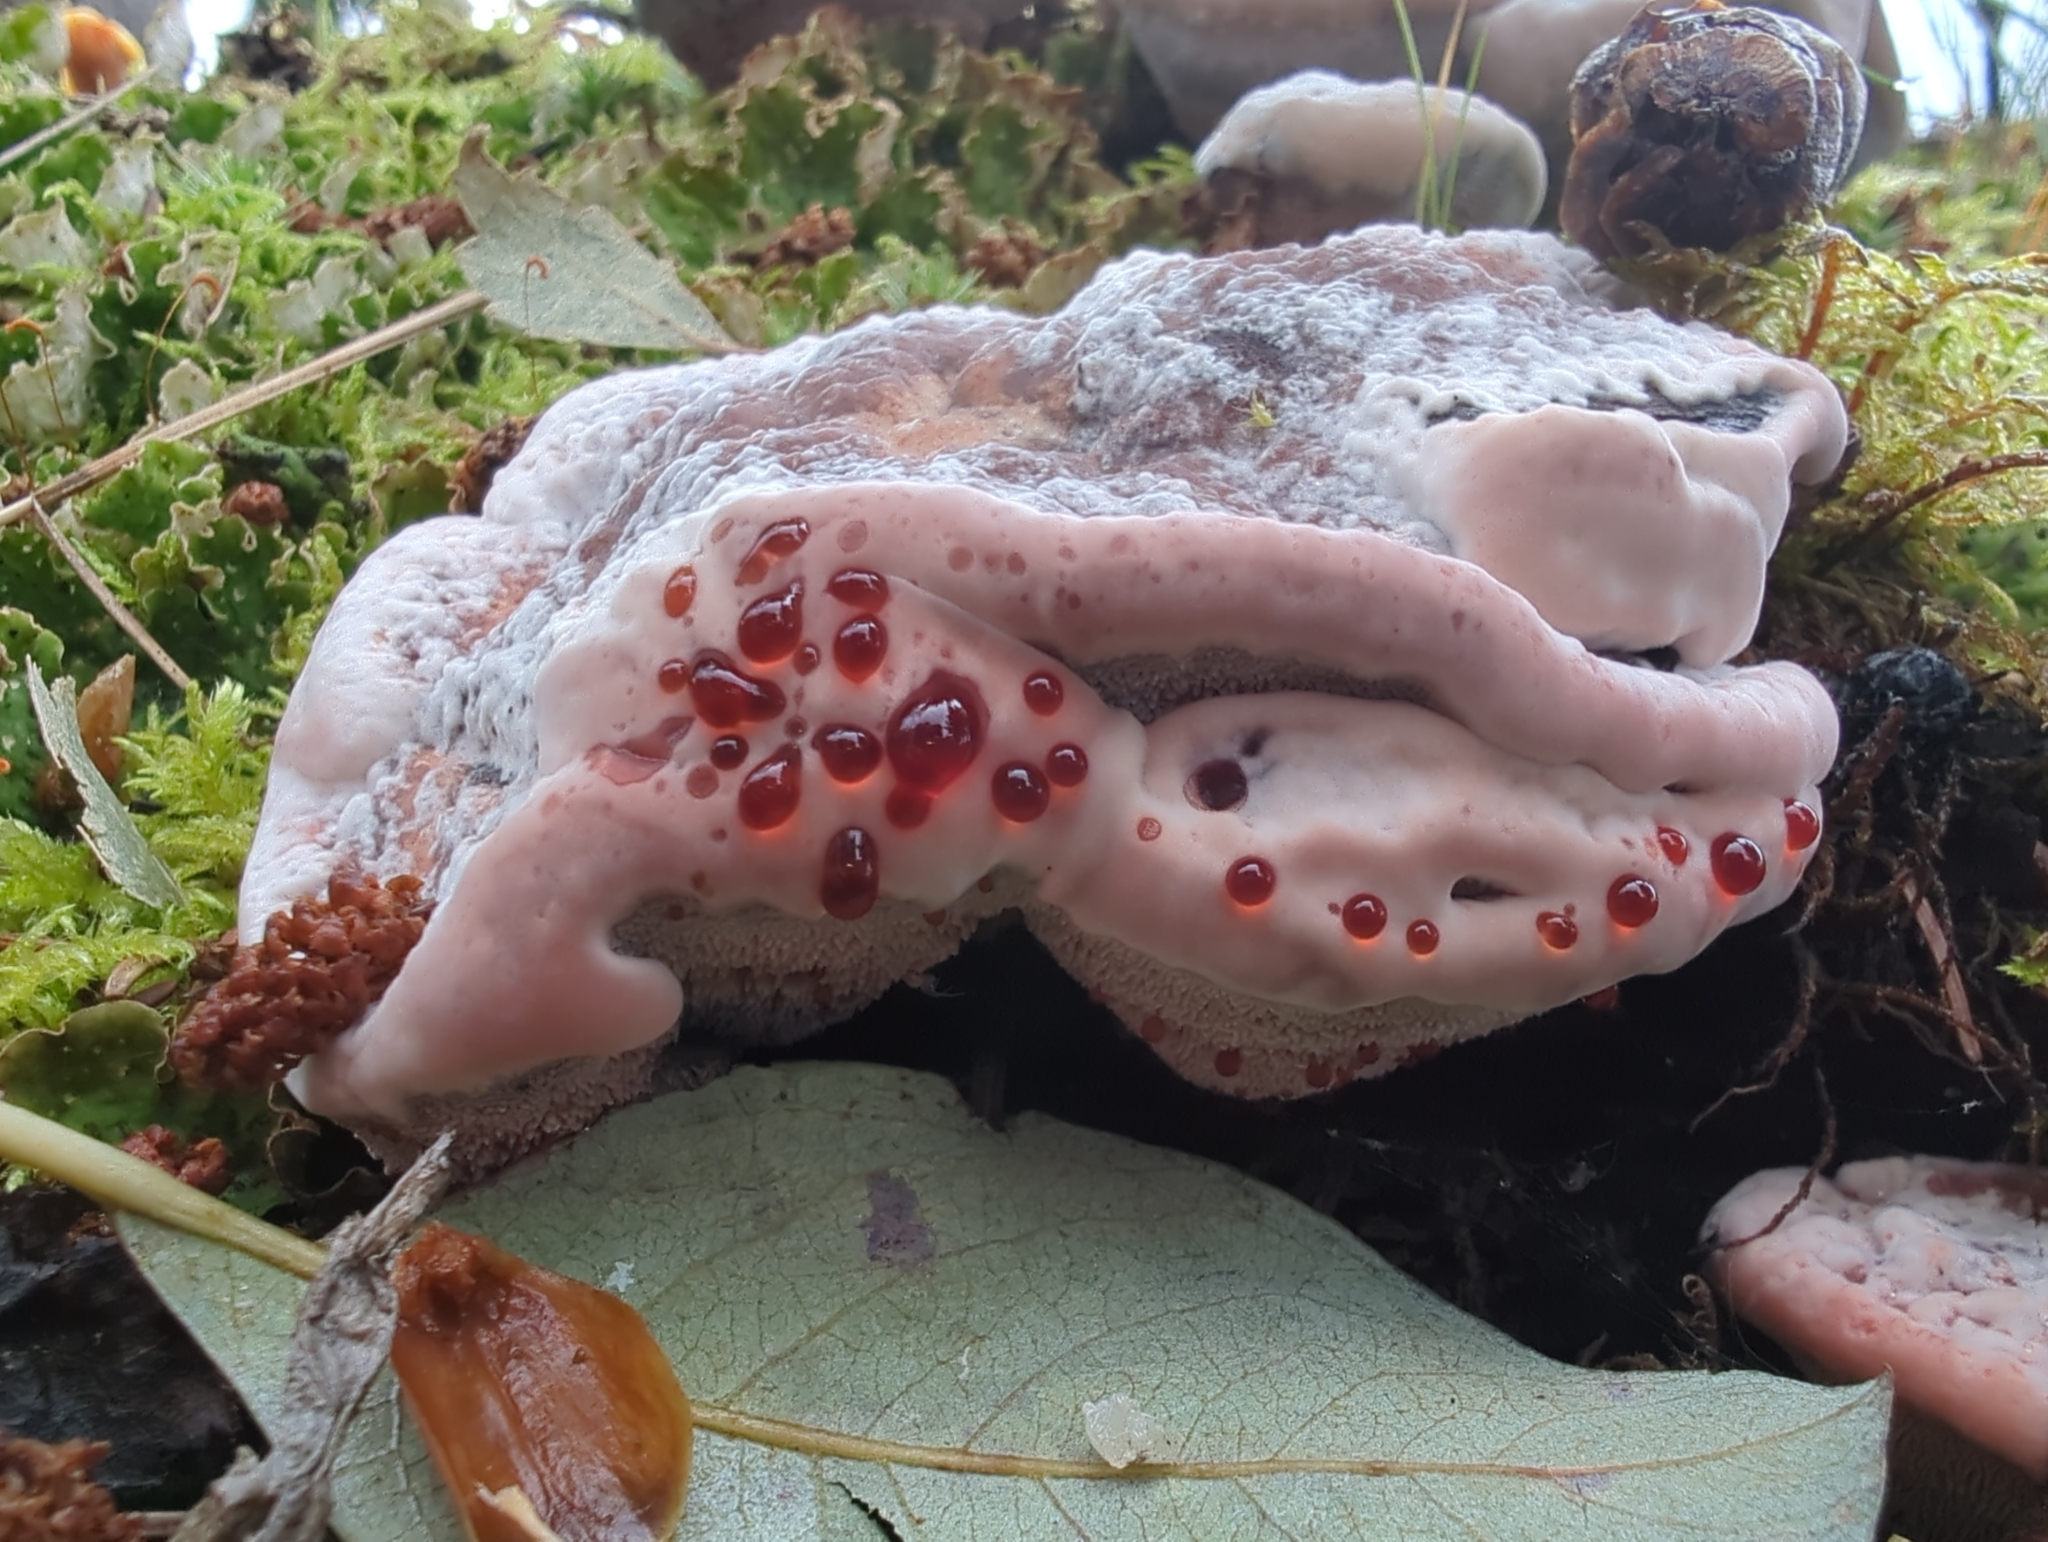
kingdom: Fungi
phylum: Basidiomycota
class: Agaricomycetes
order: Thelephorales
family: Bankeraceae
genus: Hydnellum
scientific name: Hydnellum peckii
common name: Devil's tooth
